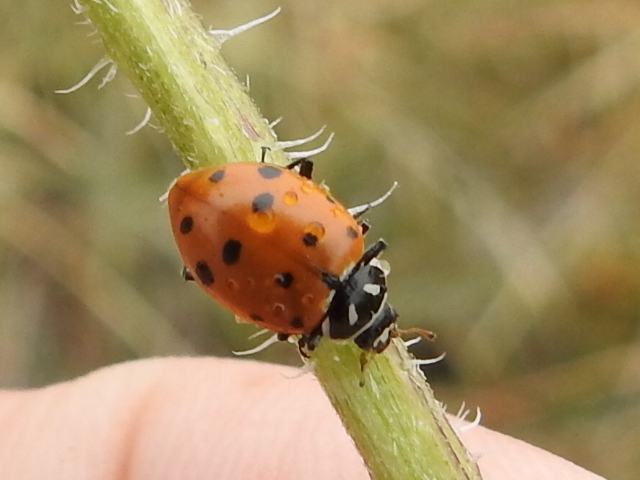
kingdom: Animalia
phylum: Arthropoda
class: Insecta
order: Coleoptera
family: Coccinellidae
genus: Hippodamia
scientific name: Hippodamia convergens
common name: Convergent lady beetle
